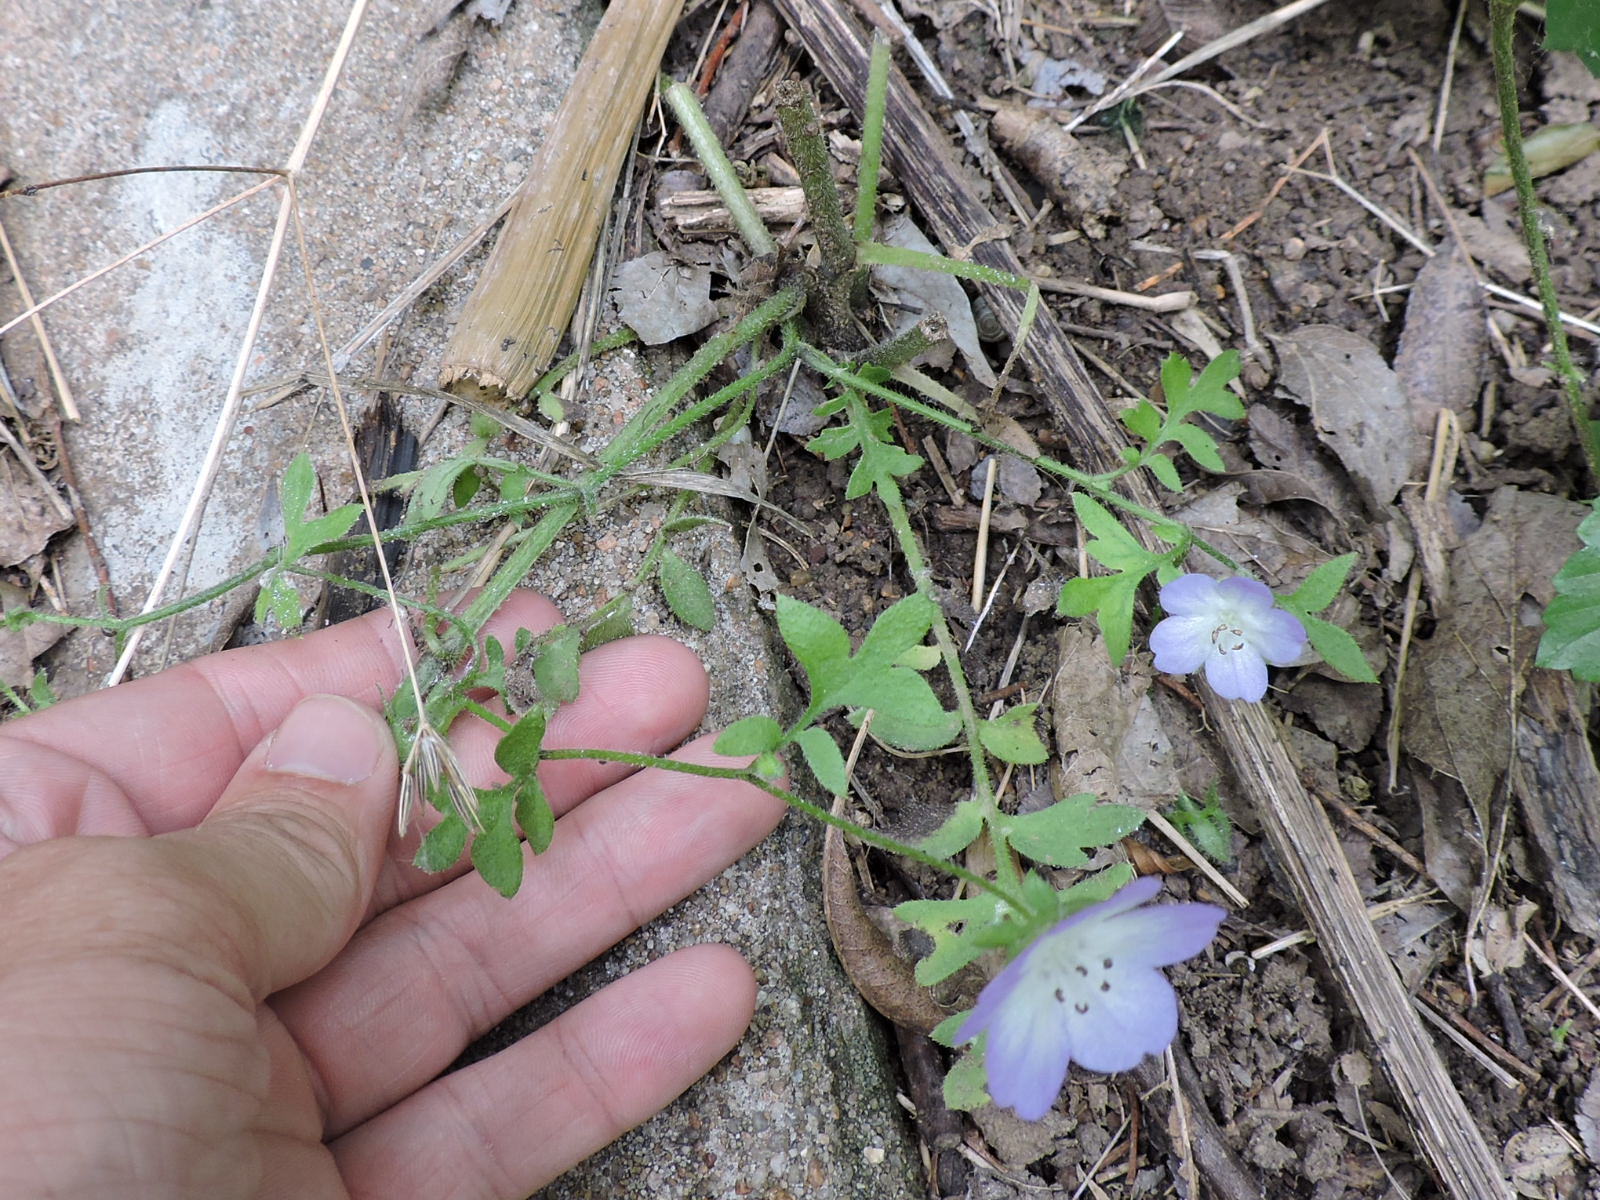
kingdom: Plantae
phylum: Tracheophyta
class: Magnoliopsida
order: Boraginales
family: Hydrophyllaceae
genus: Nemophila
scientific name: Nemophila phacelioides
